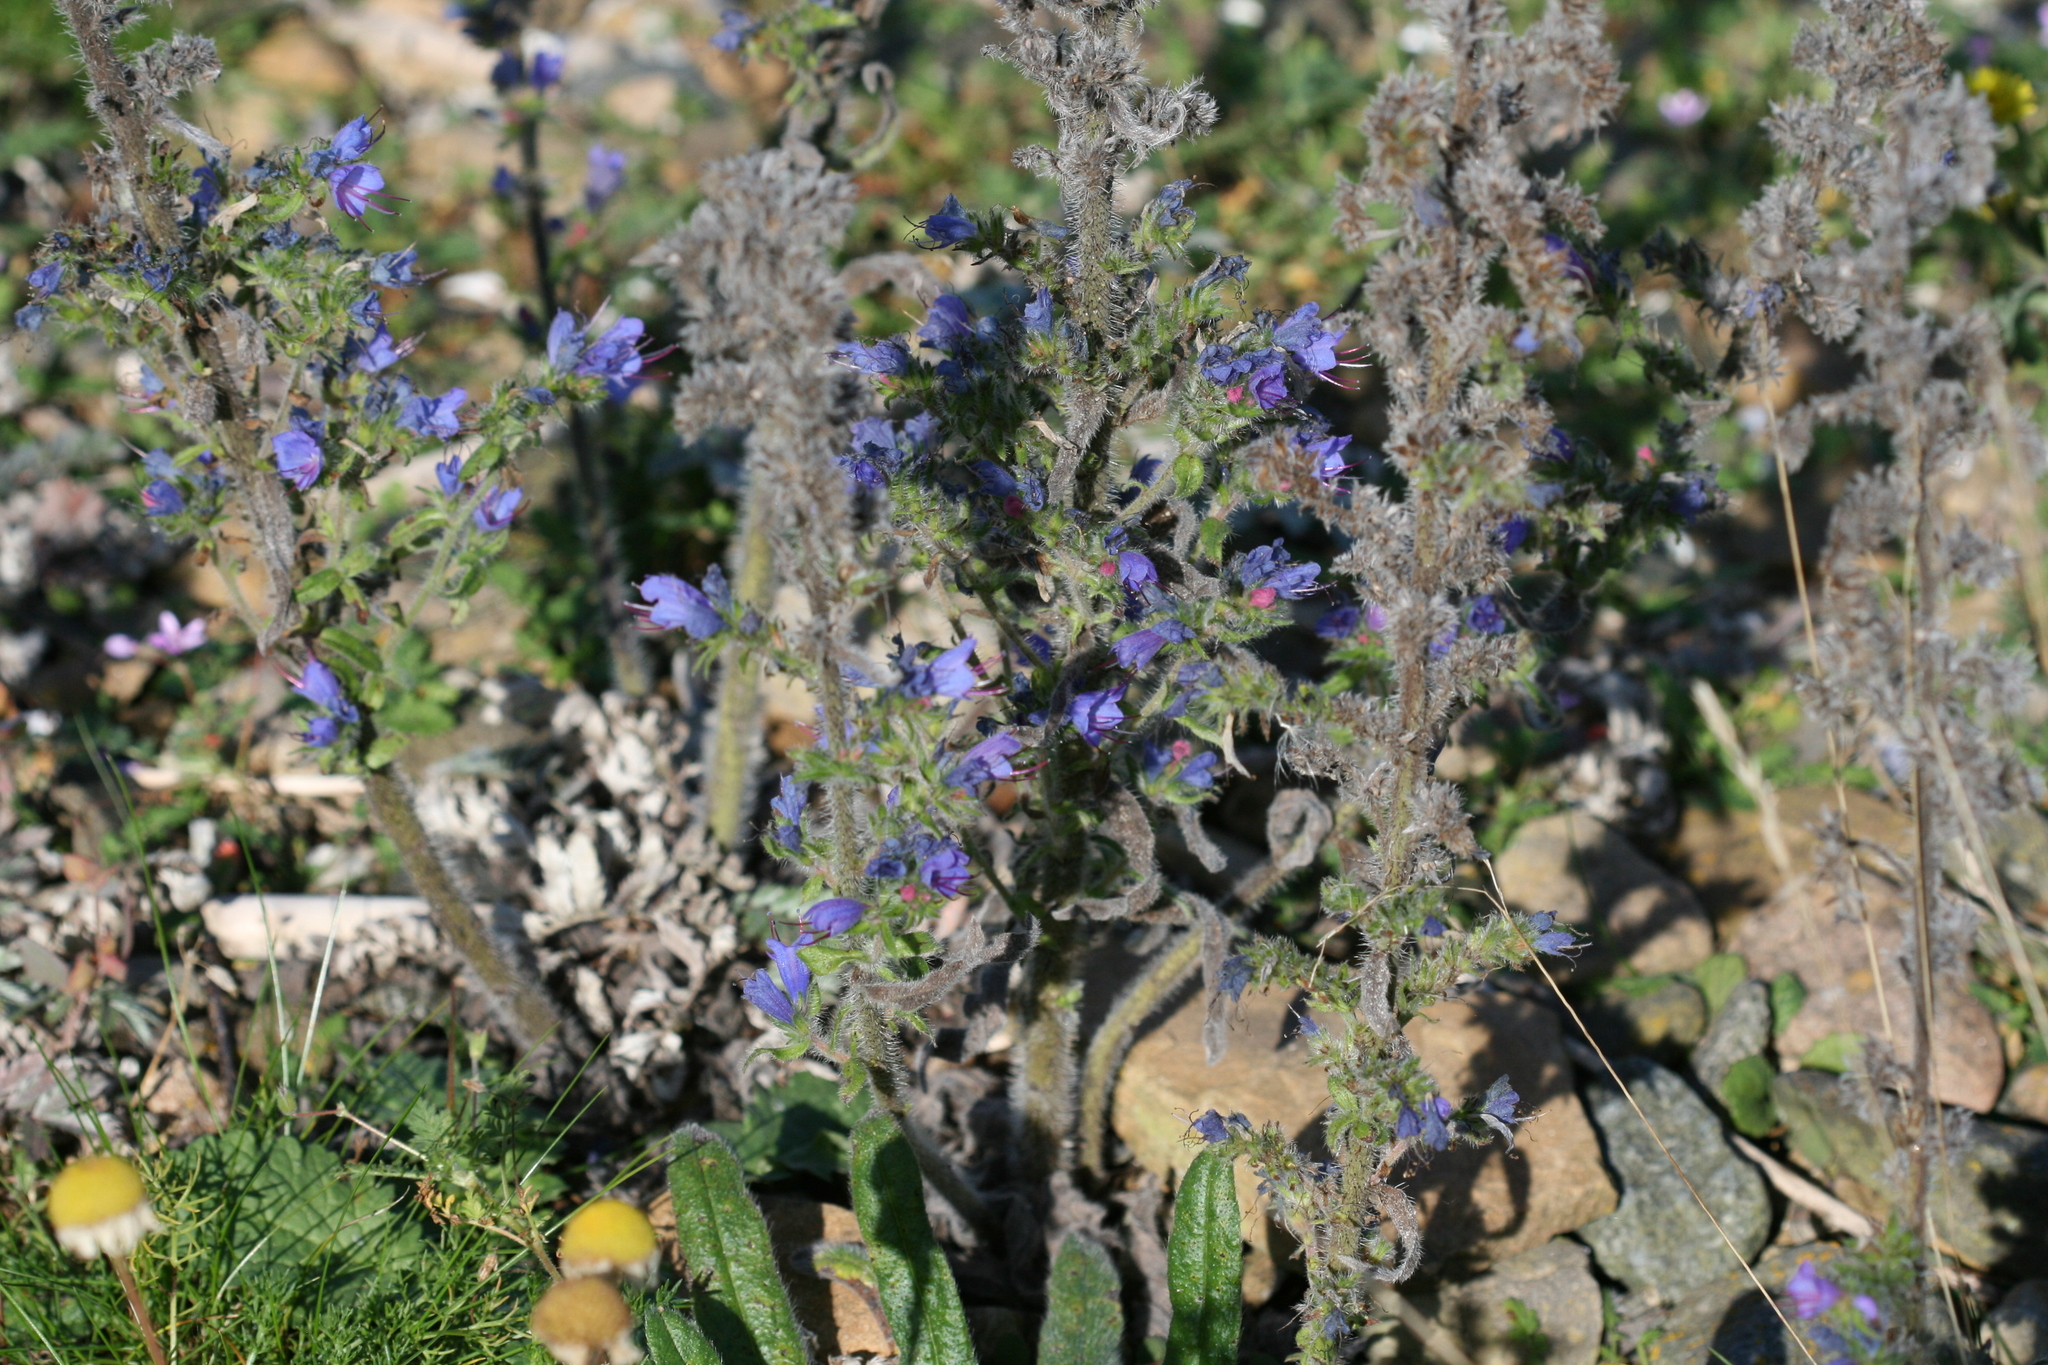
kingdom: Plantae
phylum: Tracheophyta
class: Magnoliopsida
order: Boraginales
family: Boraginaceae
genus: Echium
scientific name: Echium vulgare
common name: Common viper's bugloss
